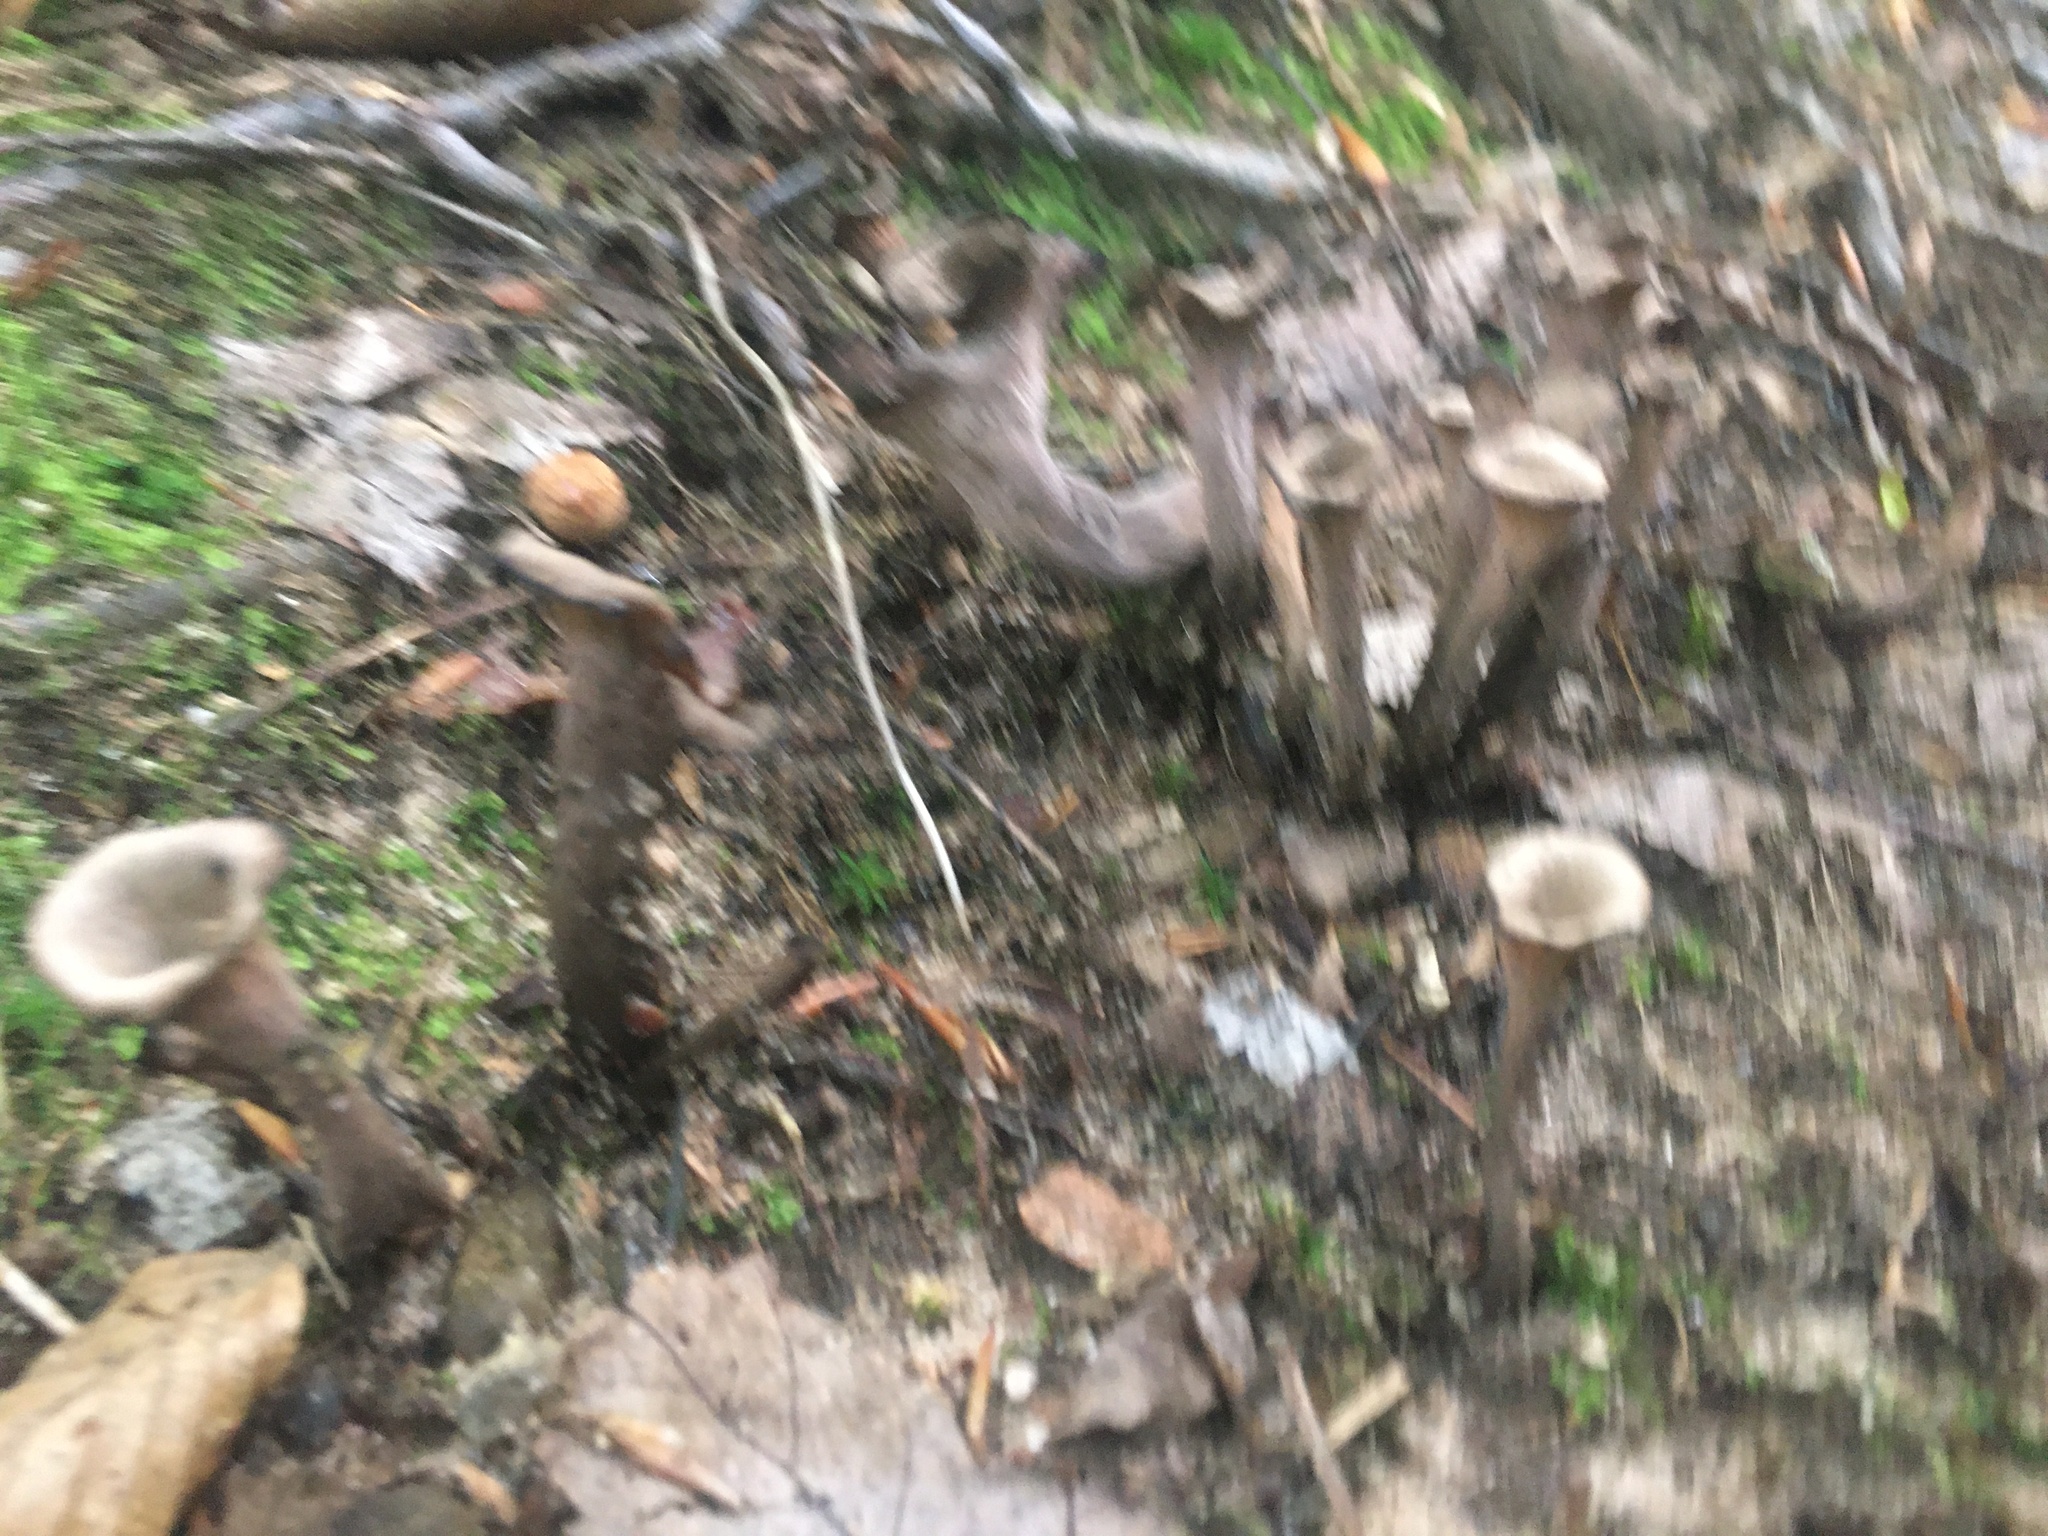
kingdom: Fungi
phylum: Basidiomycota
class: Agaricomycetes
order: Cantharellales
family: Hydnaceae
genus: Craterellus
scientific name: Craterellus cornucopioides
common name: Horn of plenty
